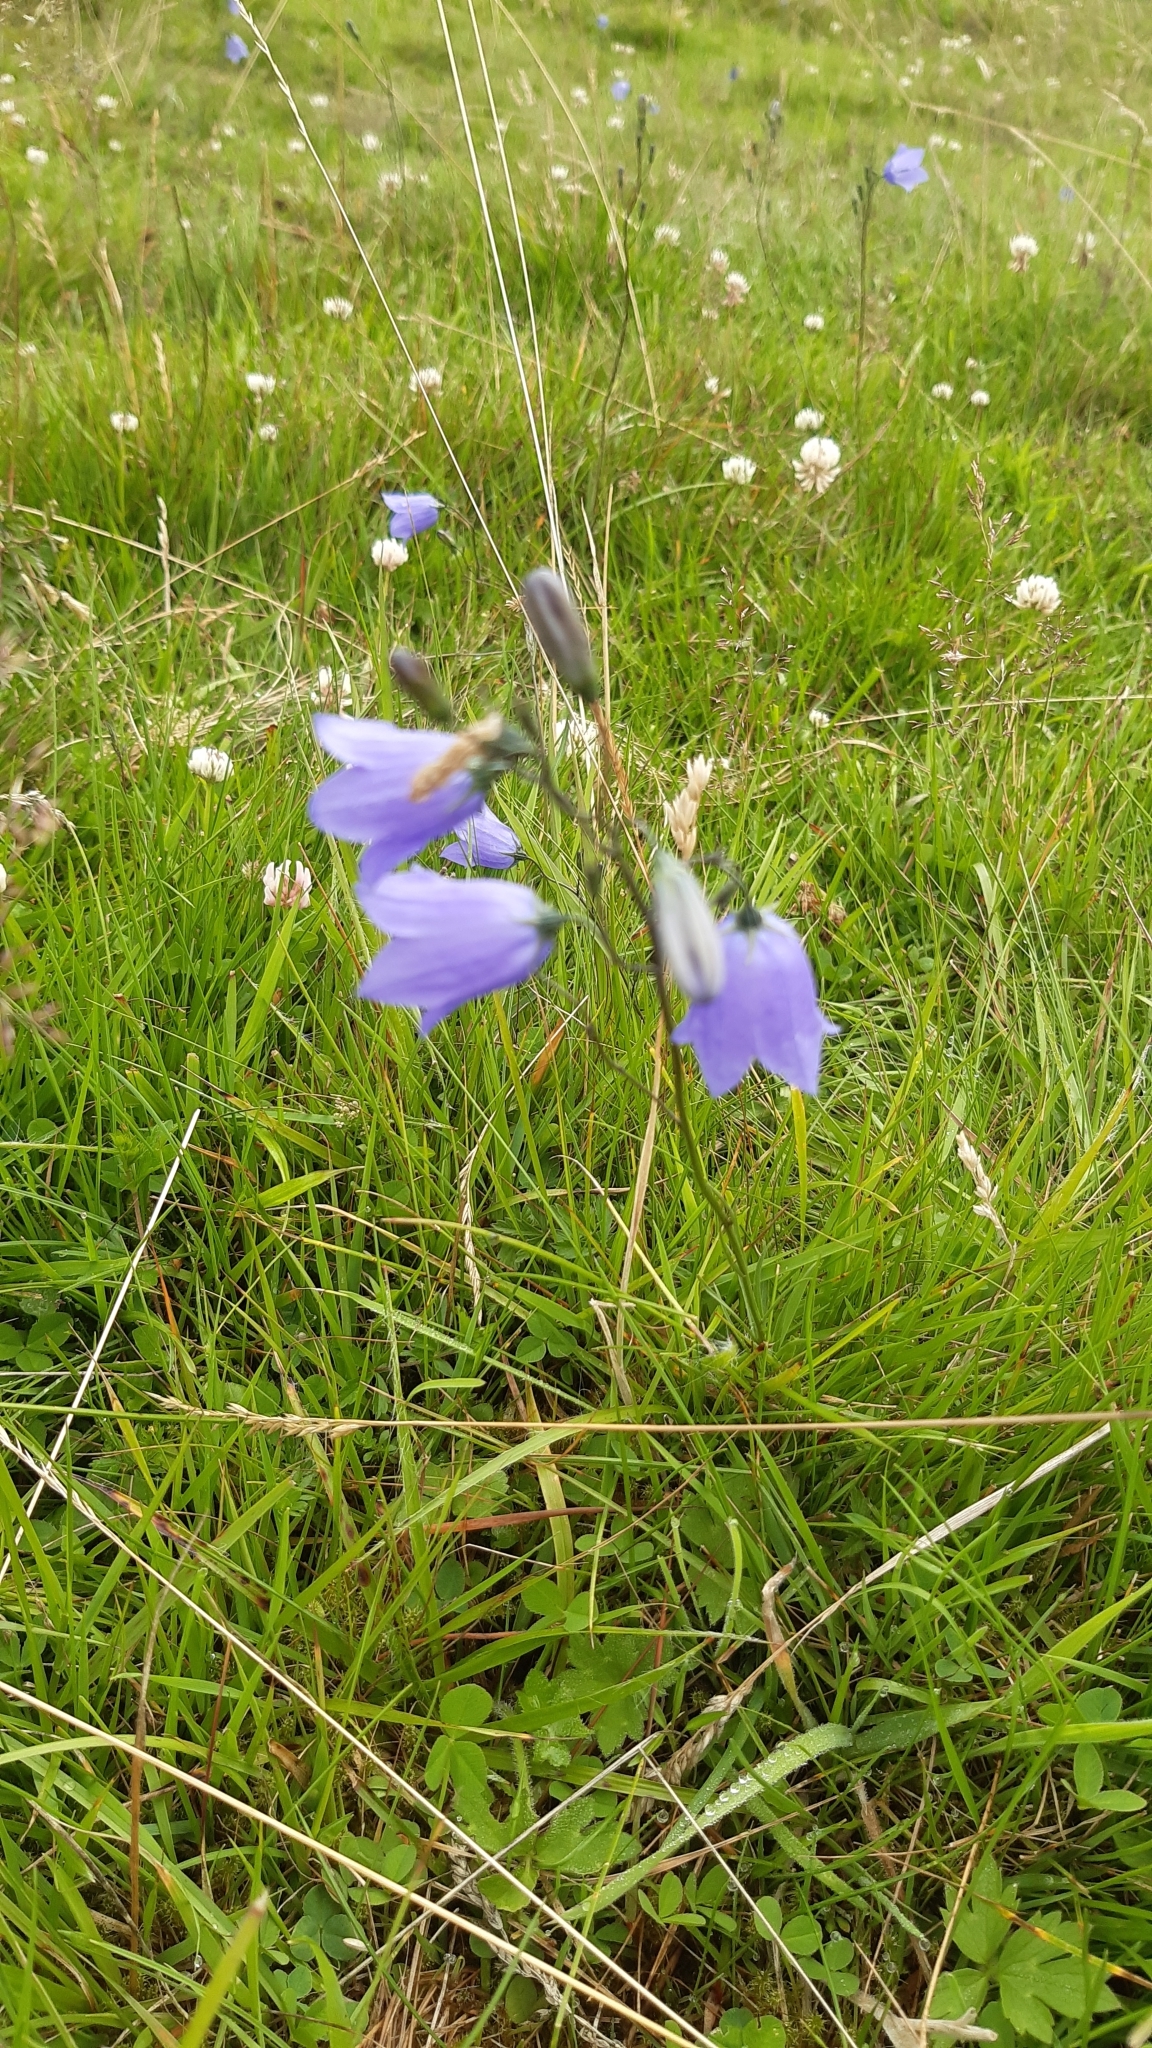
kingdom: Plantae
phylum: Tracheophyta
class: Magnoliopsida
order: Asterales
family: Campanulaceae
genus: Campanula
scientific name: Campanula rotundifolia
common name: Harebell
